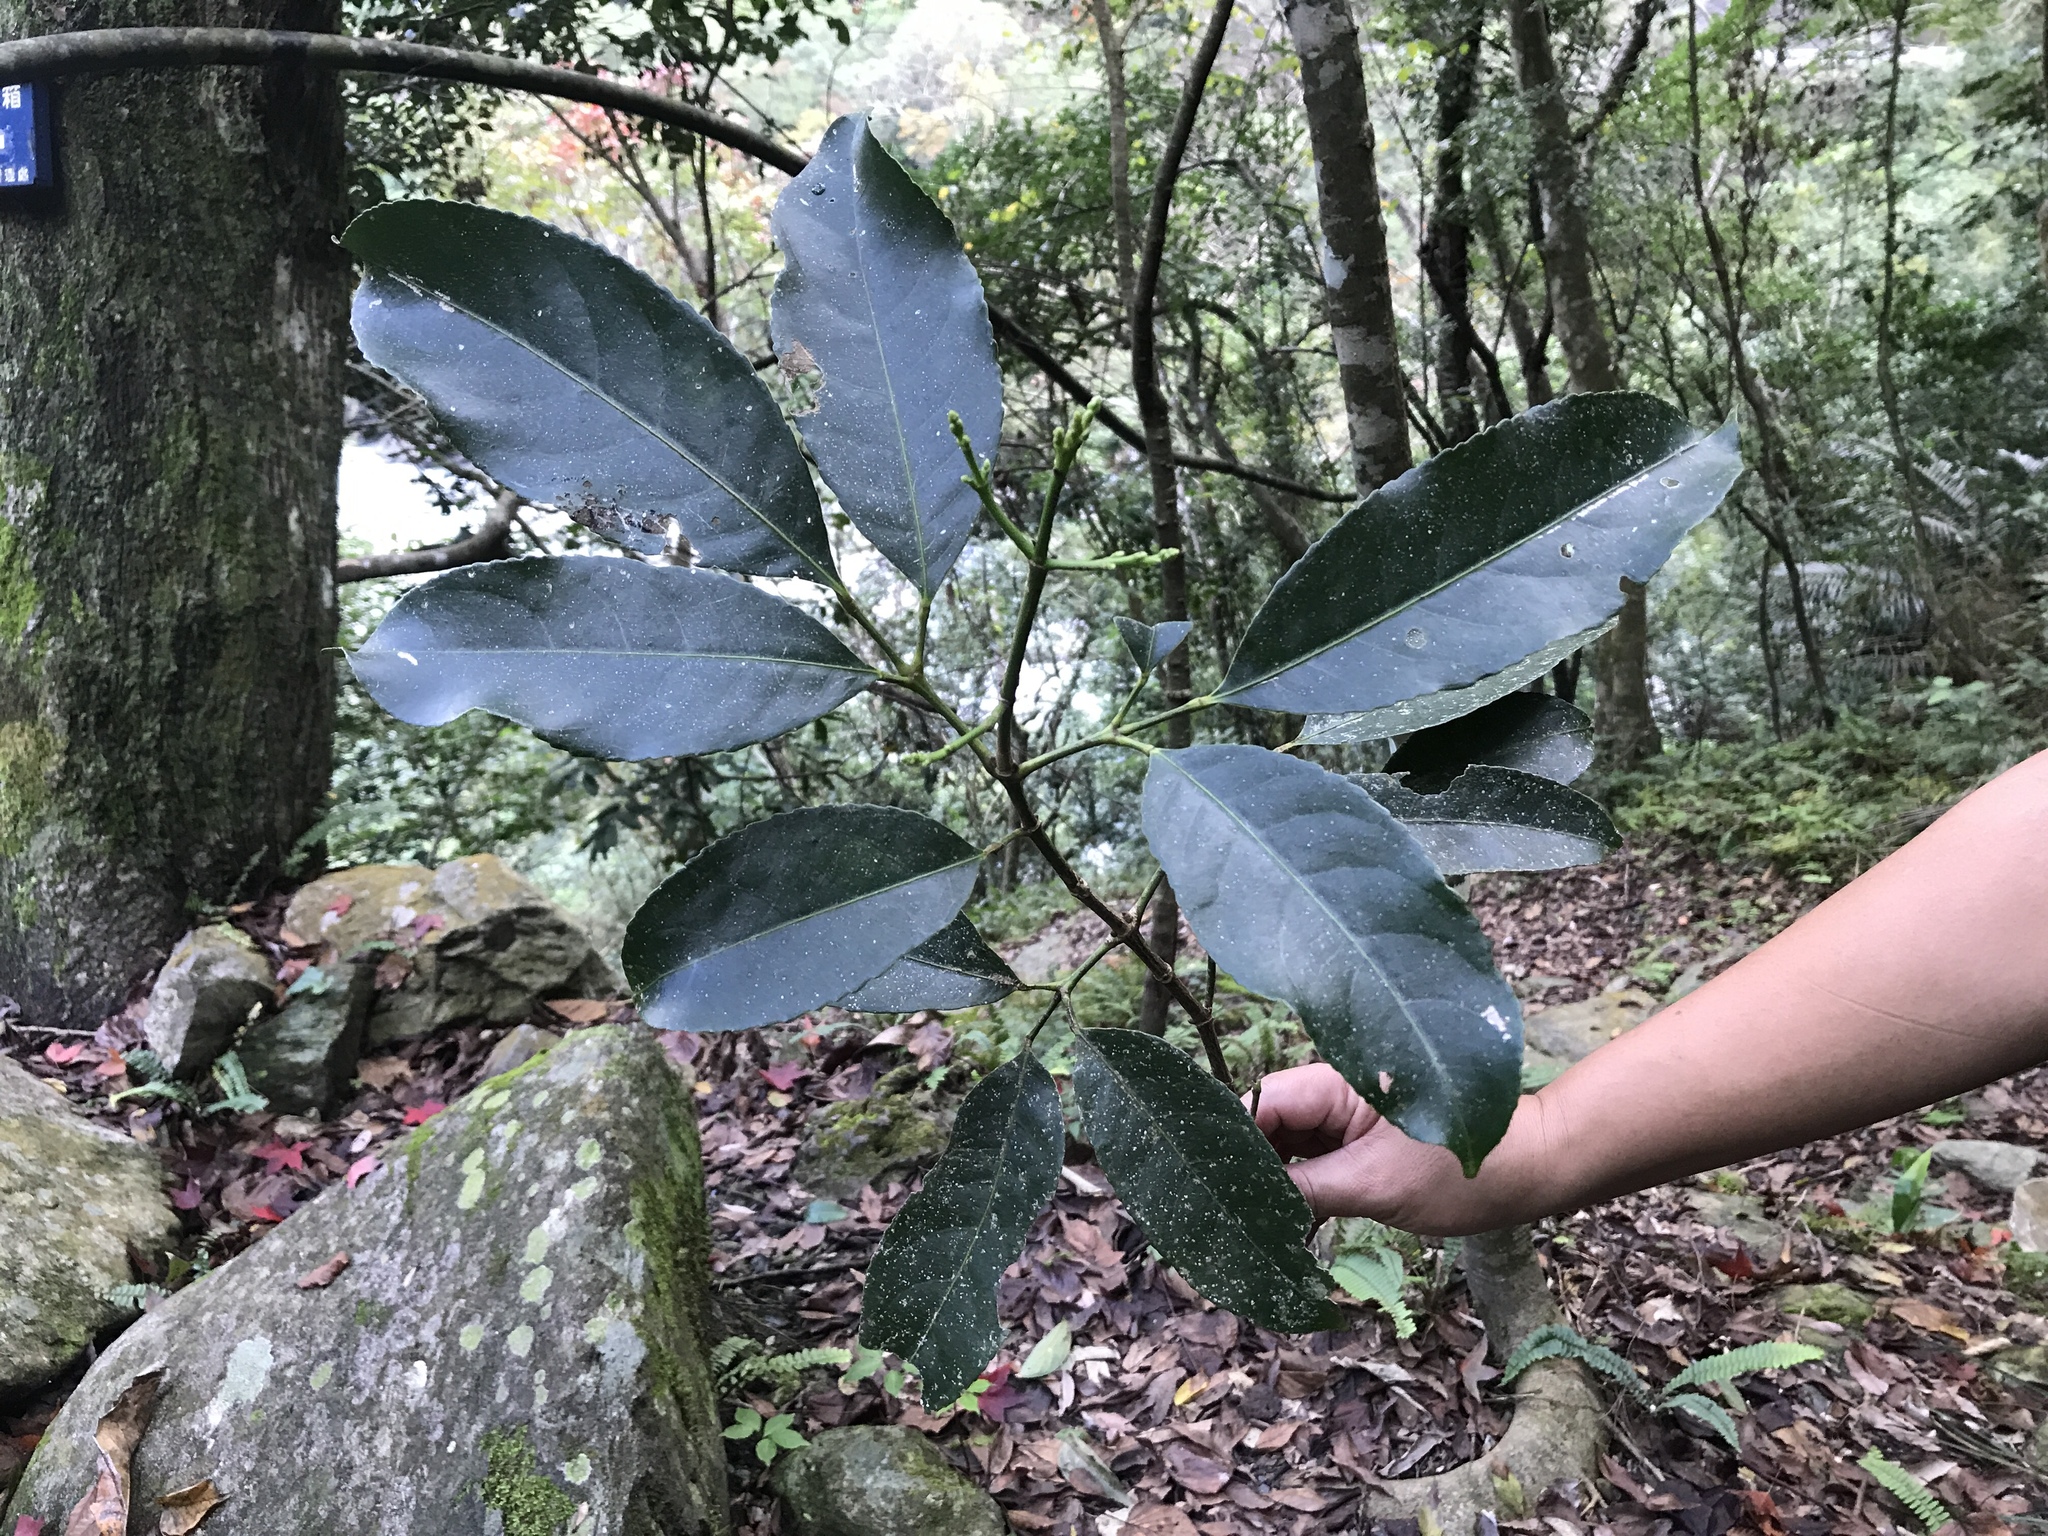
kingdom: Plantae
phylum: Tracheophyta
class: Magnoliopsida
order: Crossosomatales
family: Staphyleaceae
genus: Turpinia
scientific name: Turpinia ternata
